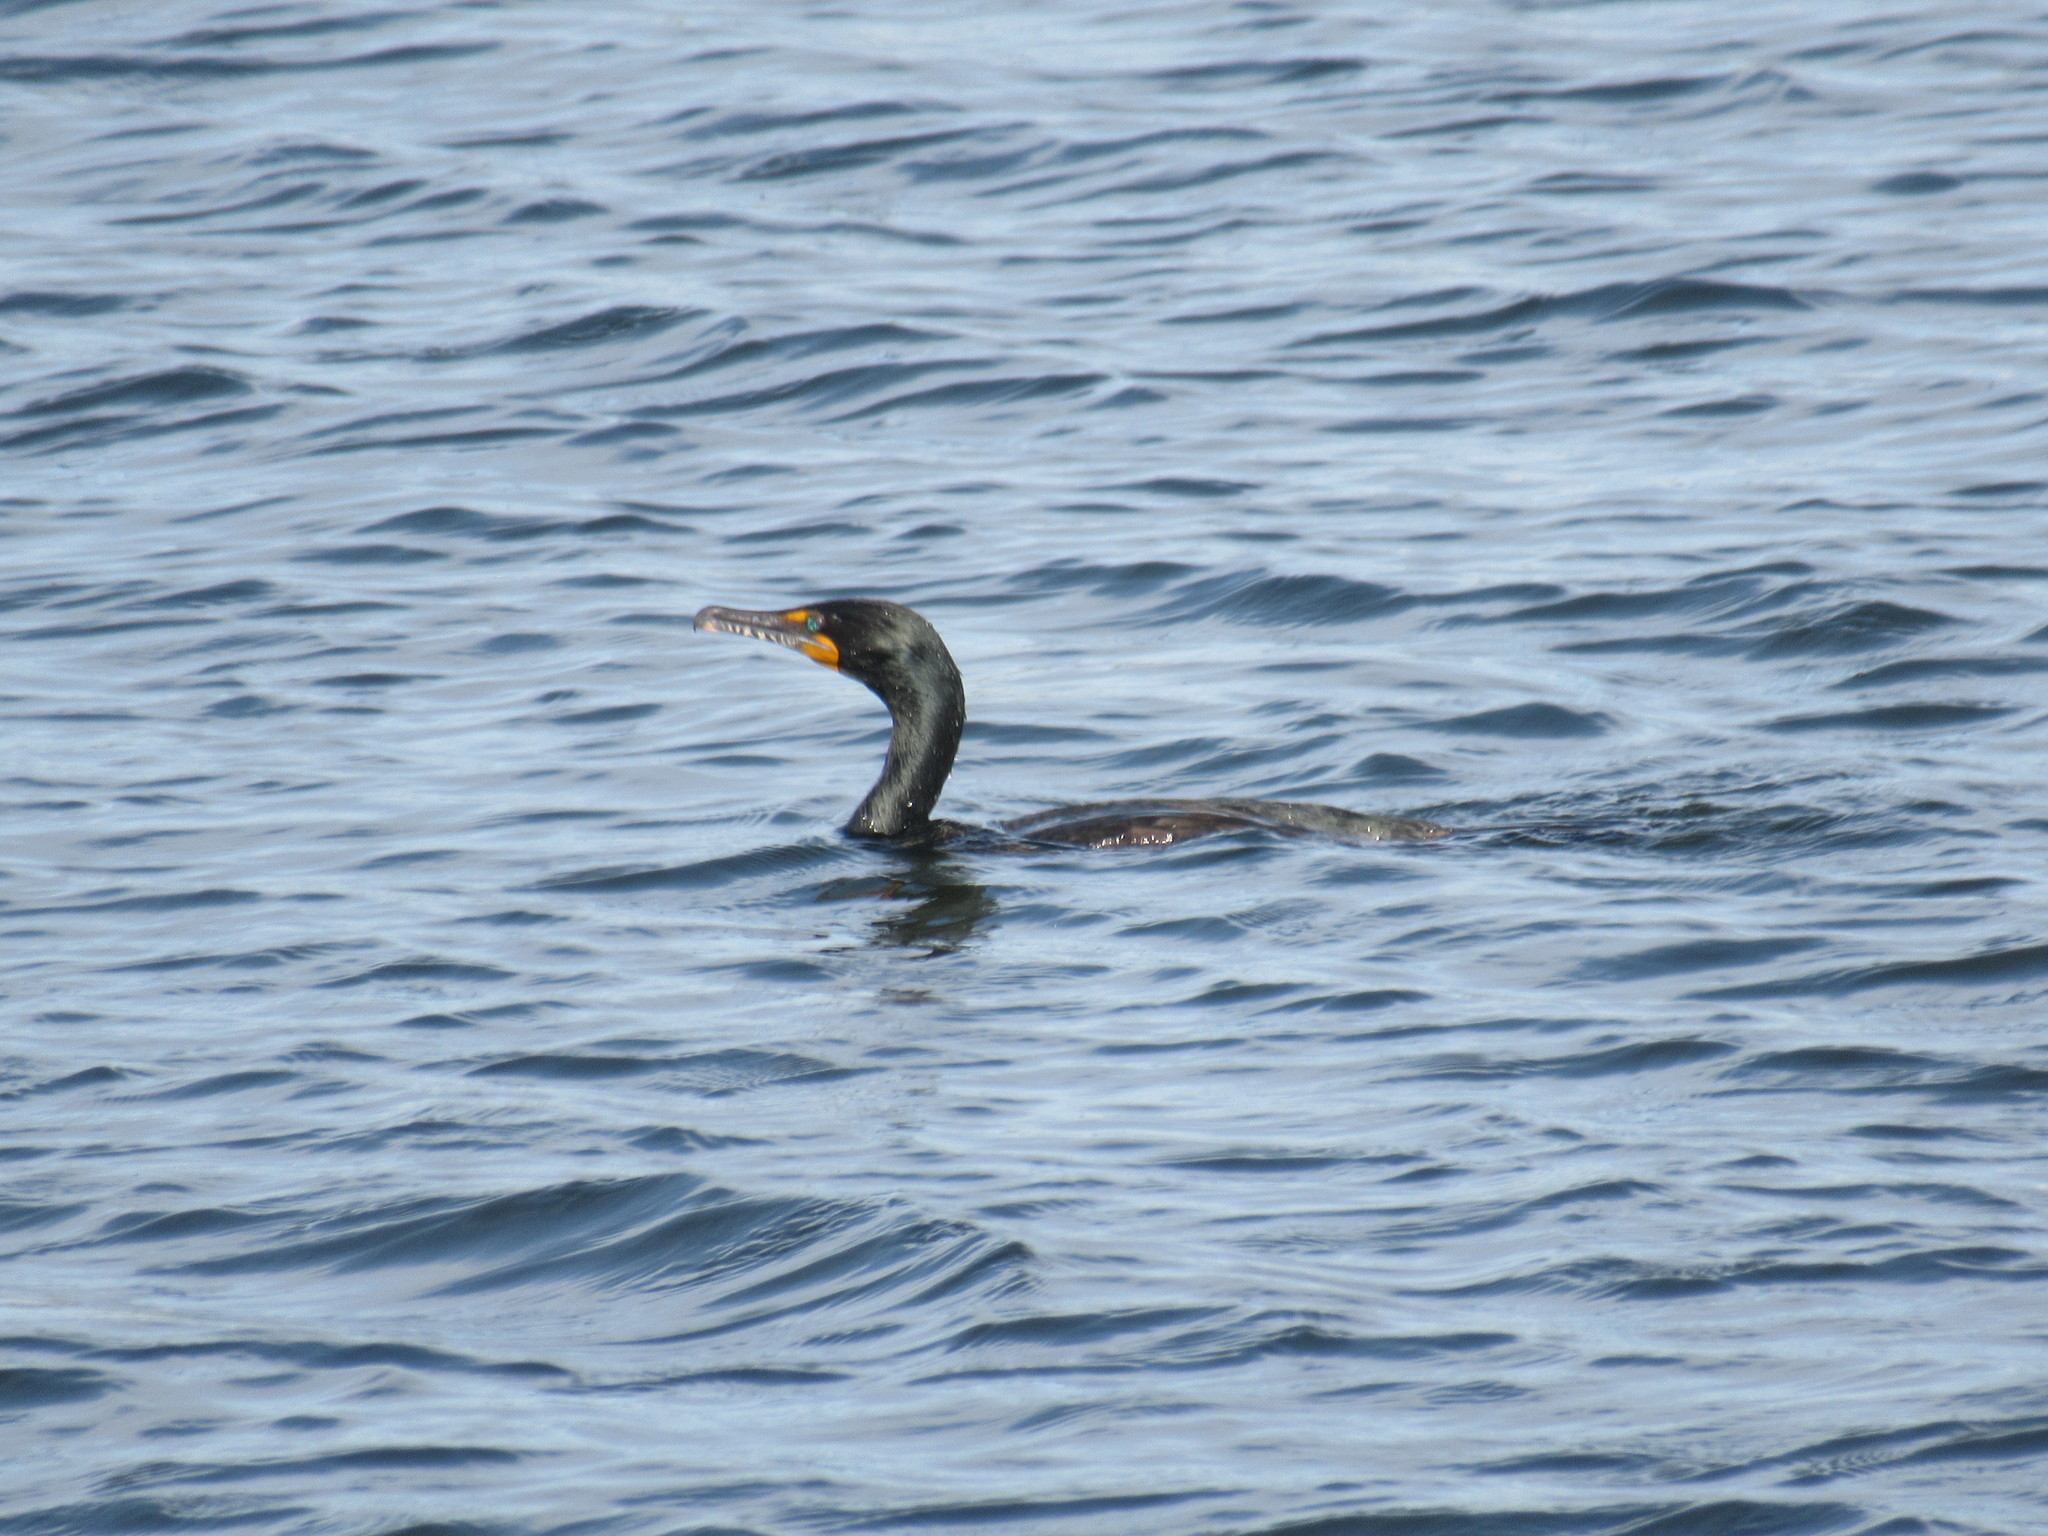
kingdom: Animalia
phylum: Chordata
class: Aves
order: Suliformes
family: Phalacrocoracidae
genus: Phalacrocorax
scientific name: Phalacrocorax auritus
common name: Double-crested cormorant
